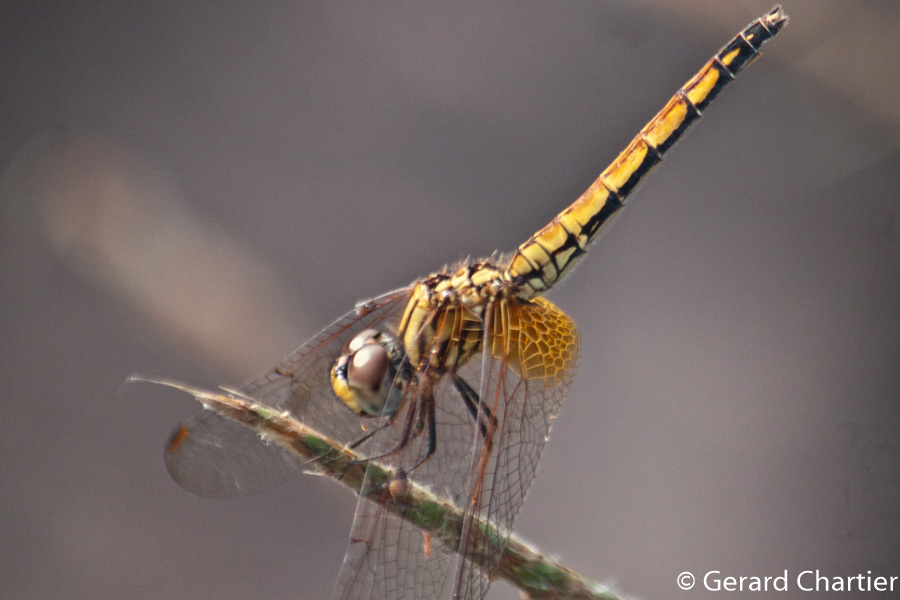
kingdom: Animalia
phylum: Arthropoda
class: Insecta
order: Odonata
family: Libellulidae
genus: Trithemis
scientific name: Trithemis aurora
